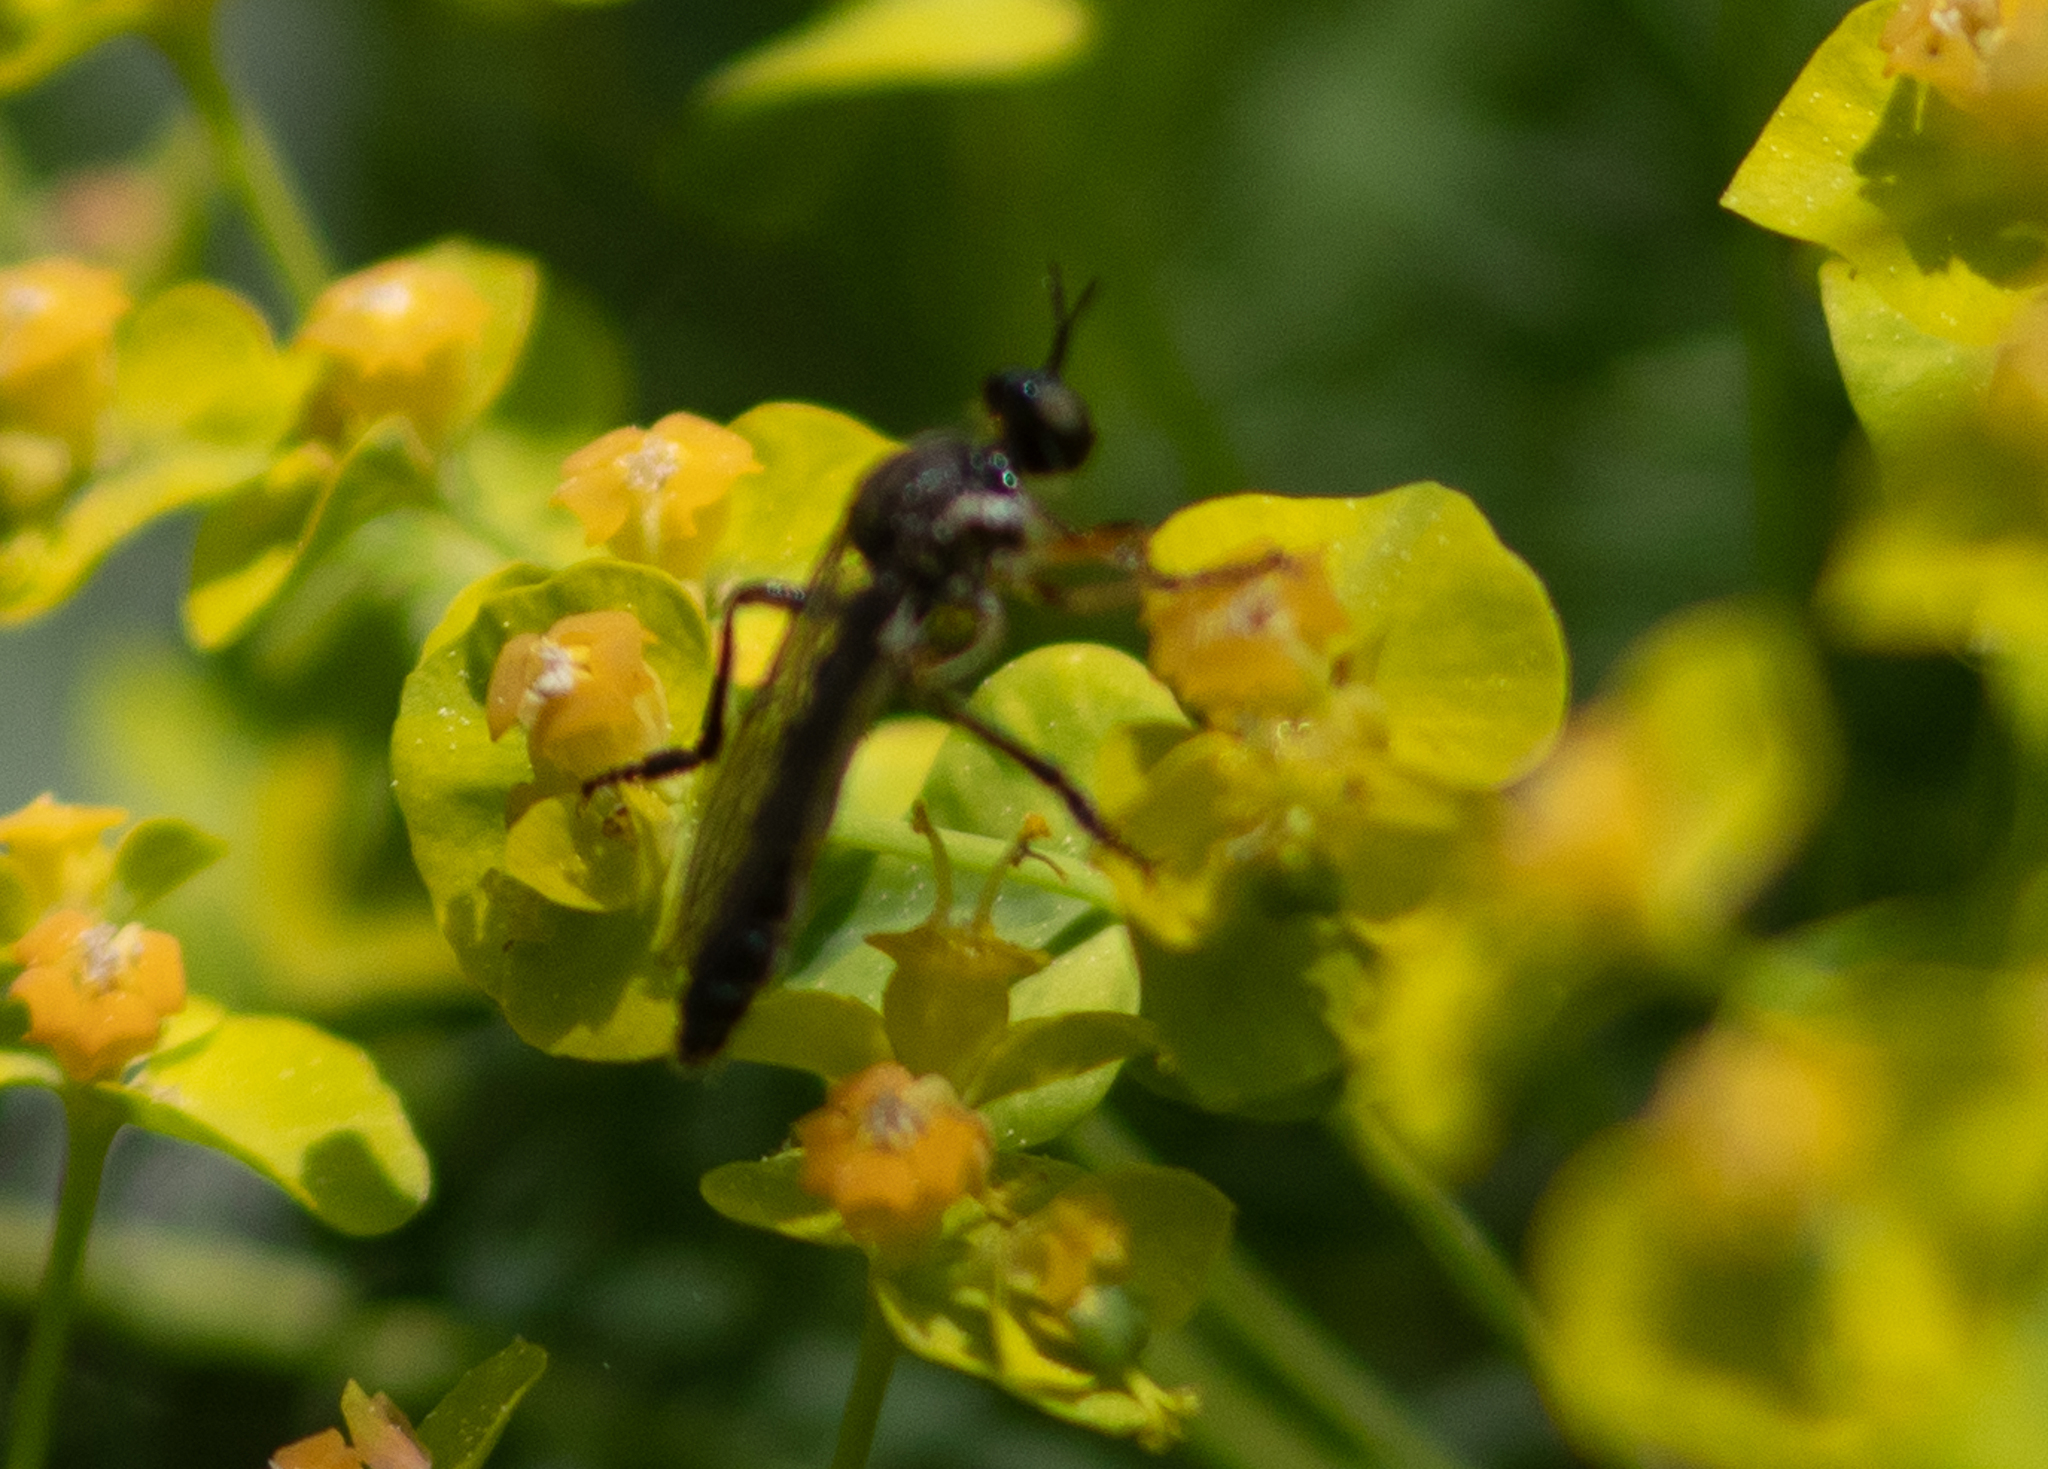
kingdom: Animalia
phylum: Arthropoda
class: Insecta
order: Diptera
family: Asilidae
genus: Dioctria
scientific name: Dioctria hyalipennis
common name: Stripe-legged robberfly
